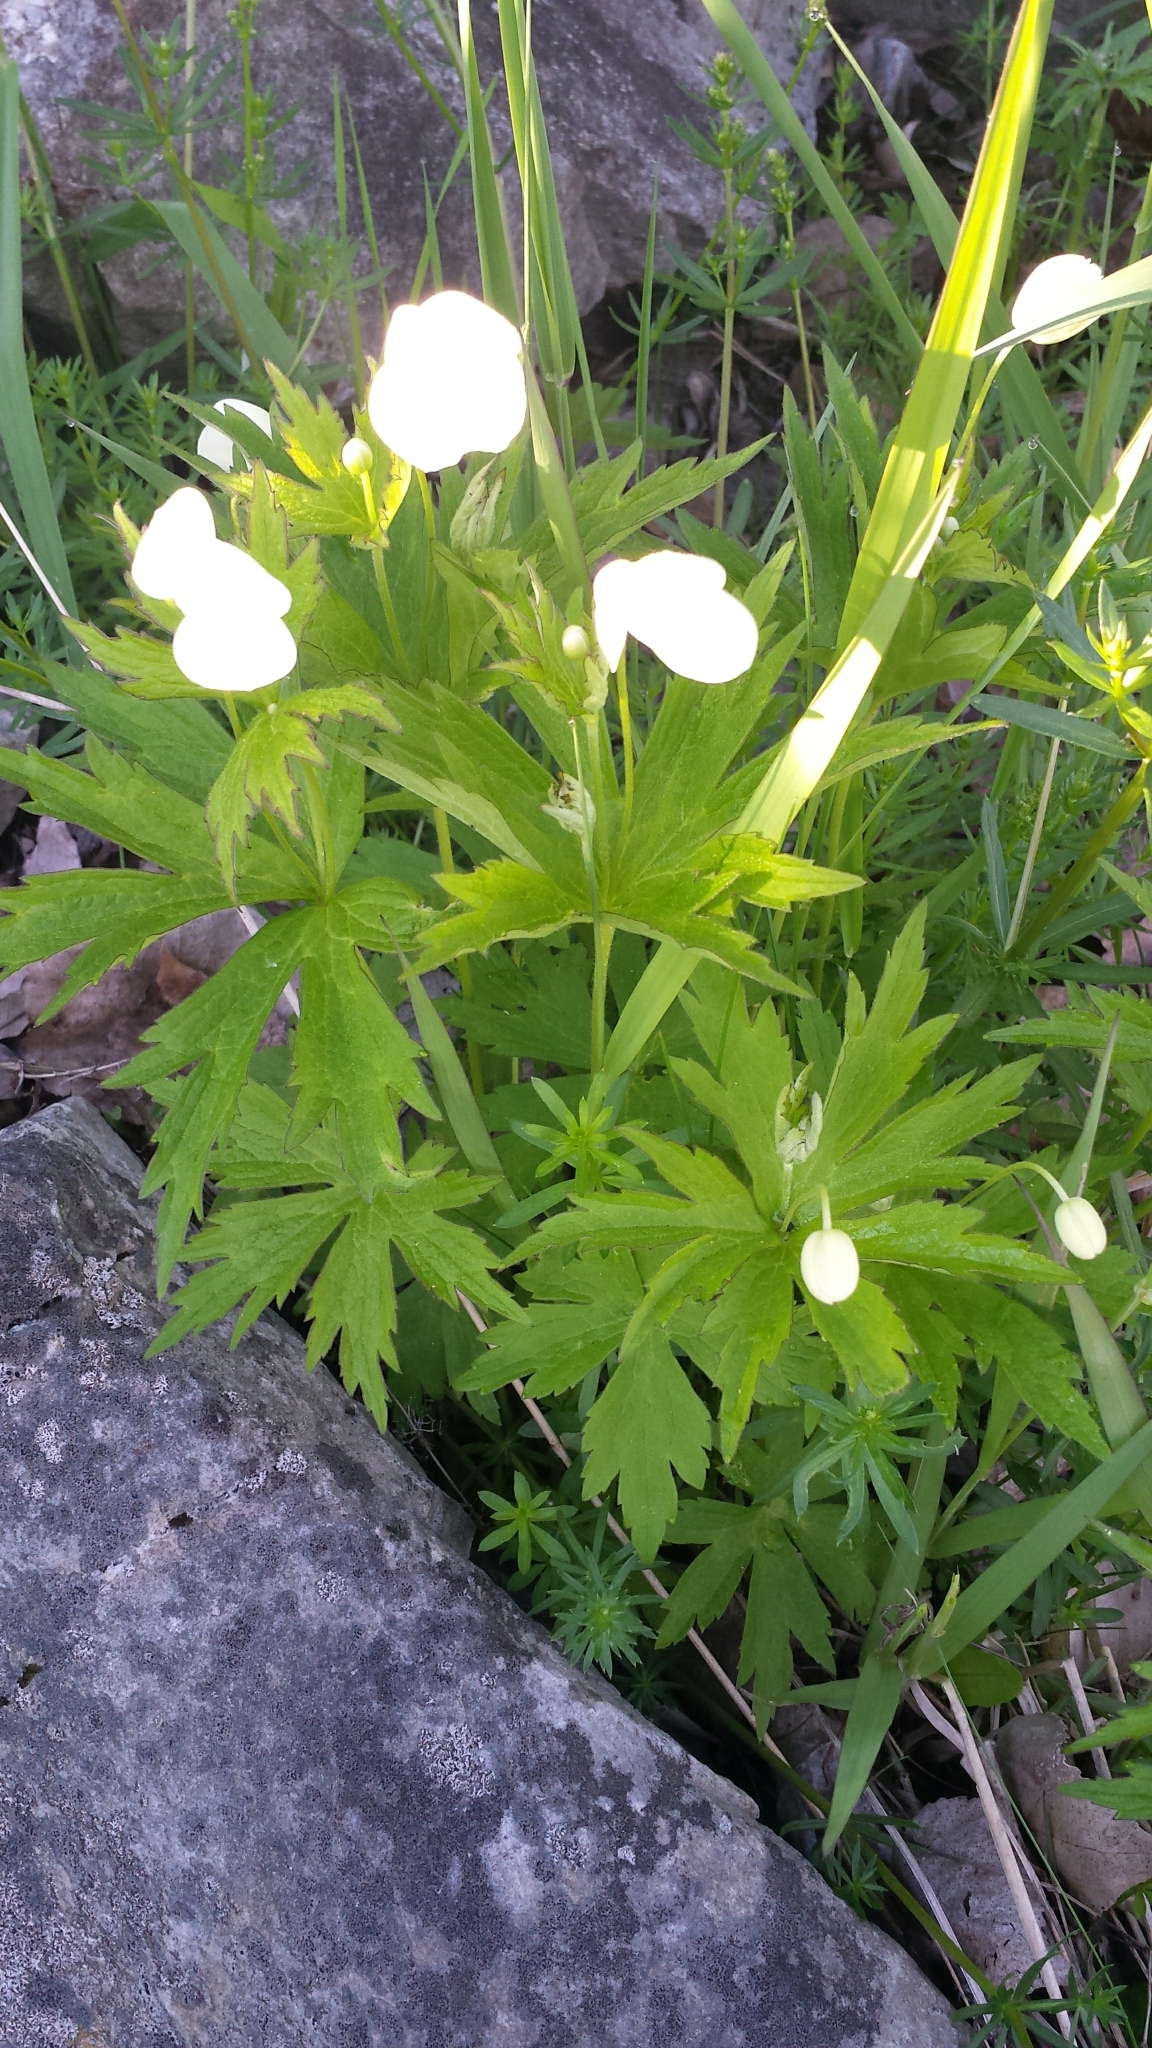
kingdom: Plantae
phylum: Tracheophyta
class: Magnoliopsida
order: Ranunculales
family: Ranunculaceae
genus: Anemonastrum
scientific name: Anemonastrum canadense
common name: Canada anemone
